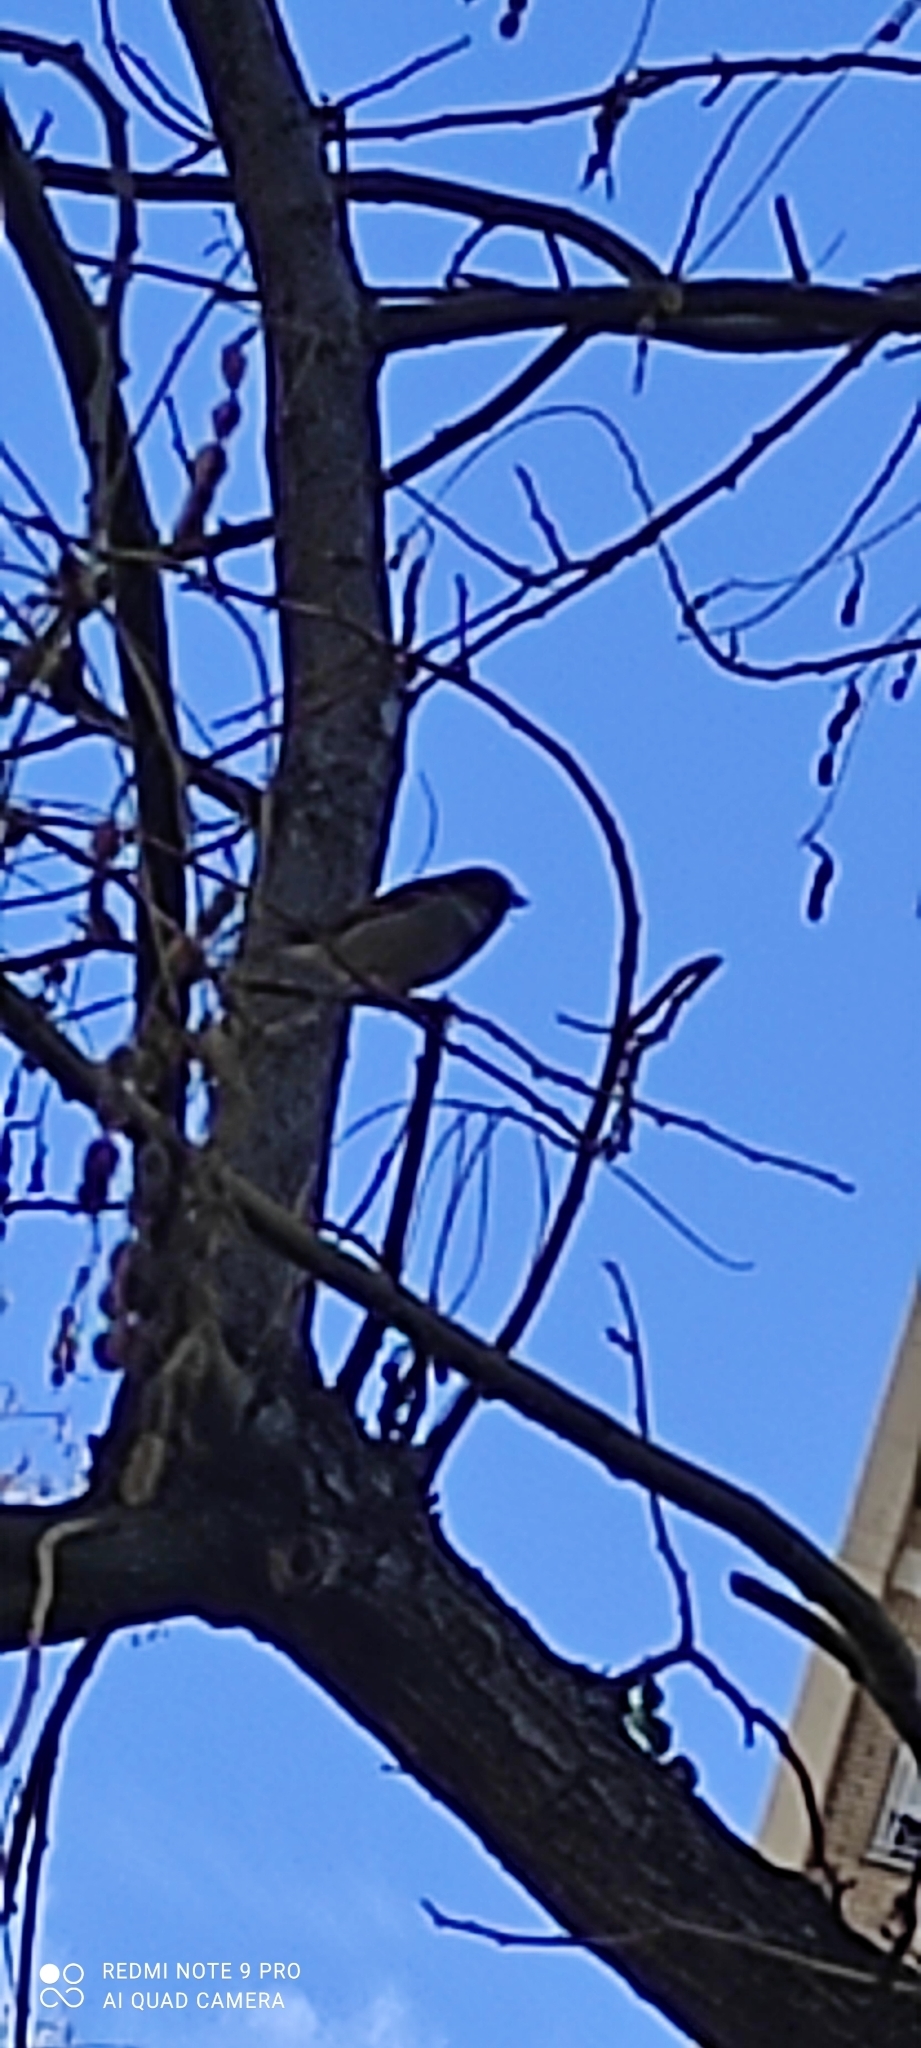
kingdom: Animalia
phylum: Chordata
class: Aves
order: Passeriformes
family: Passeridae
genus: Passer
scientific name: Passer domesticus
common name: House sparrow
